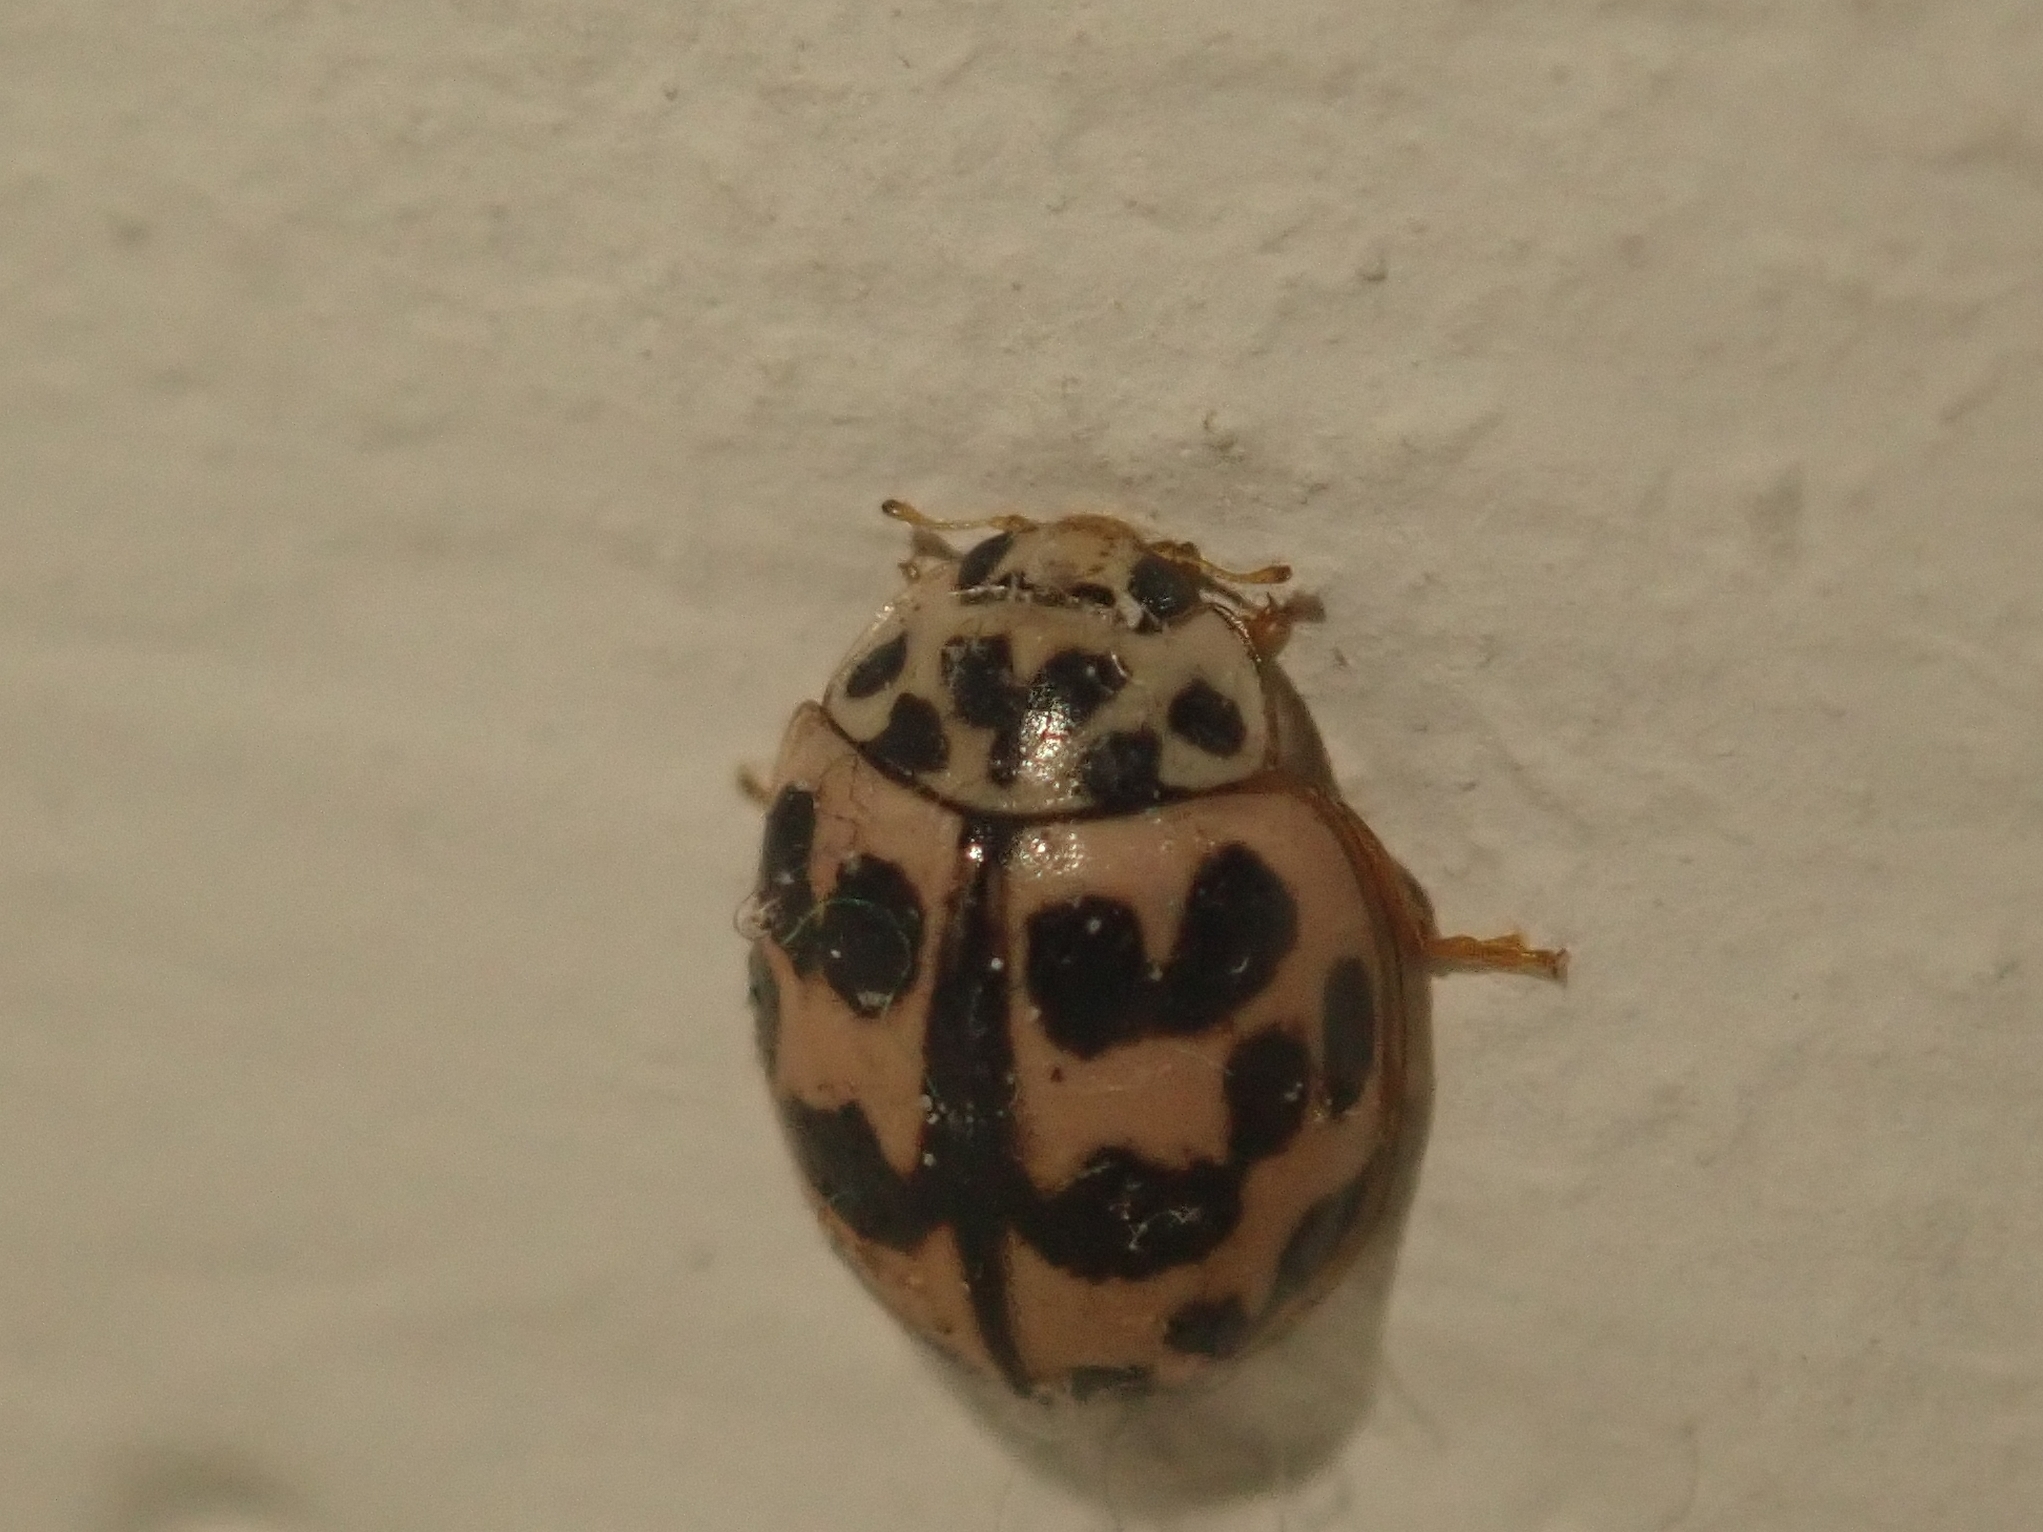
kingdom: Animalia
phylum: Arthropoda
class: Insecta
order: Coleoptera
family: Coccinellidae
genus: Oenopia
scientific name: Oenopia conglobata
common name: Ladybird beetle
